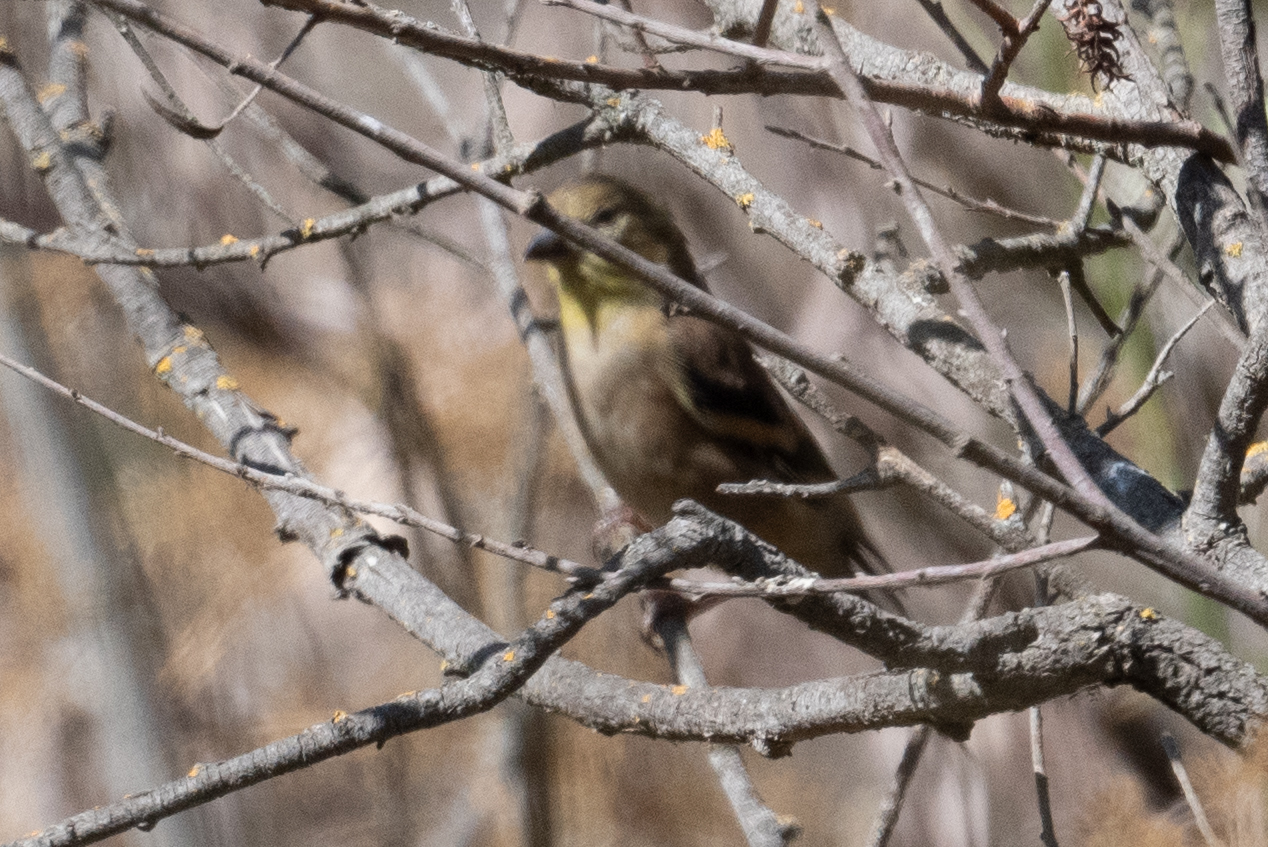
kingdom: Animalia
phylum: Chordata
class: Aves
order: Passeriformes
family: Fringillidae
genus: Spinus
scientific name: Spinus tristis
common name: American goldfinch
